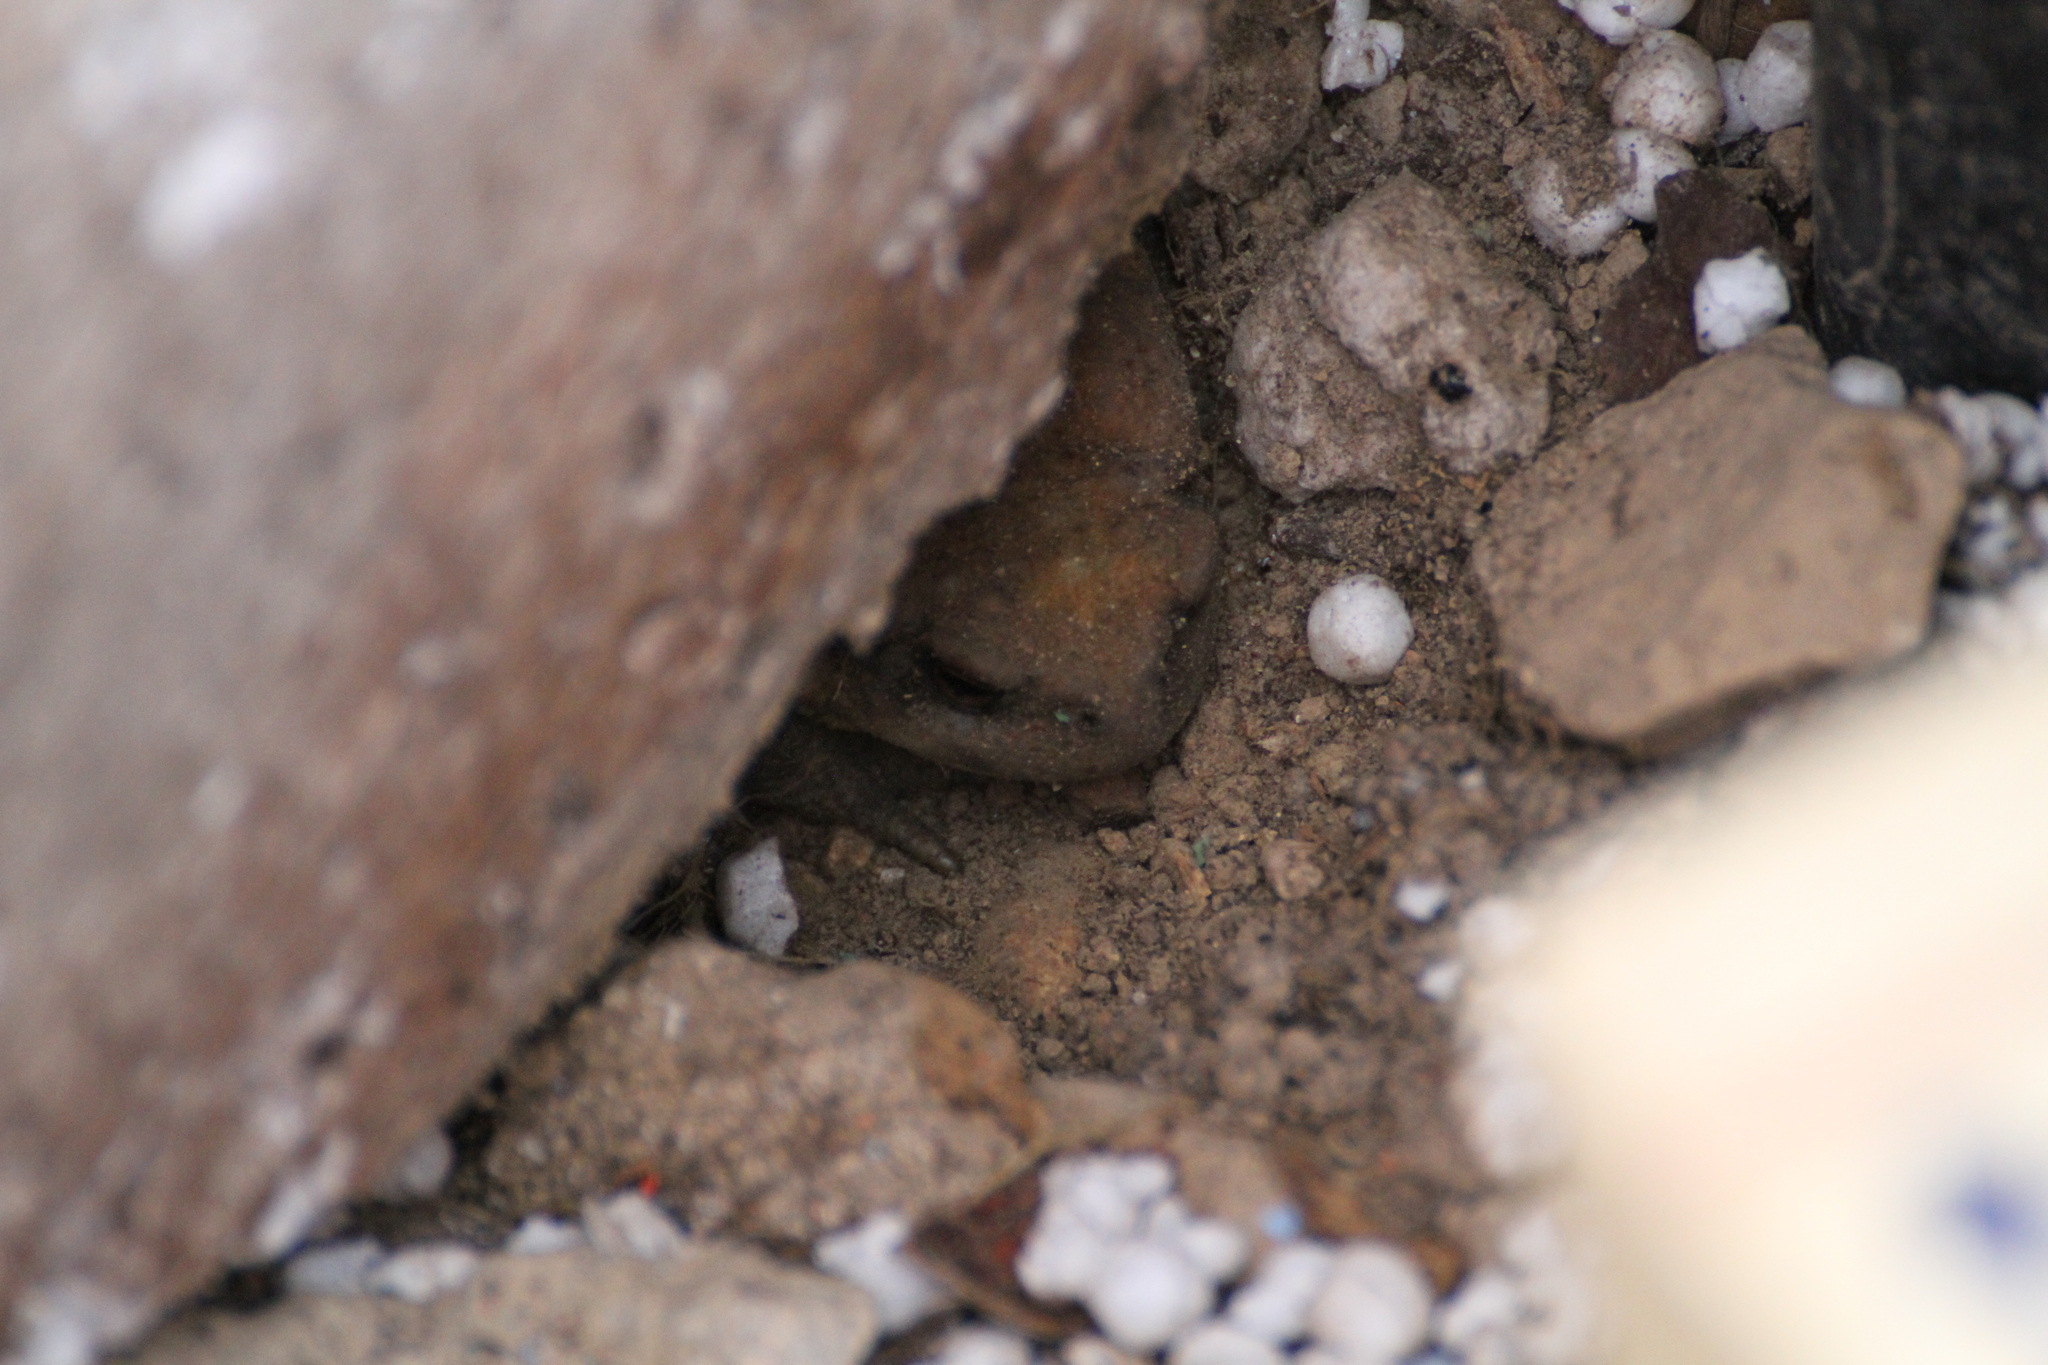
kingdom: Animalia
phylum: Chordata
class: Amphibia
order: Anura
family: Bufonidae
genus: Bufo
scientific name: Bufo spinosus
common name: Western common toad
